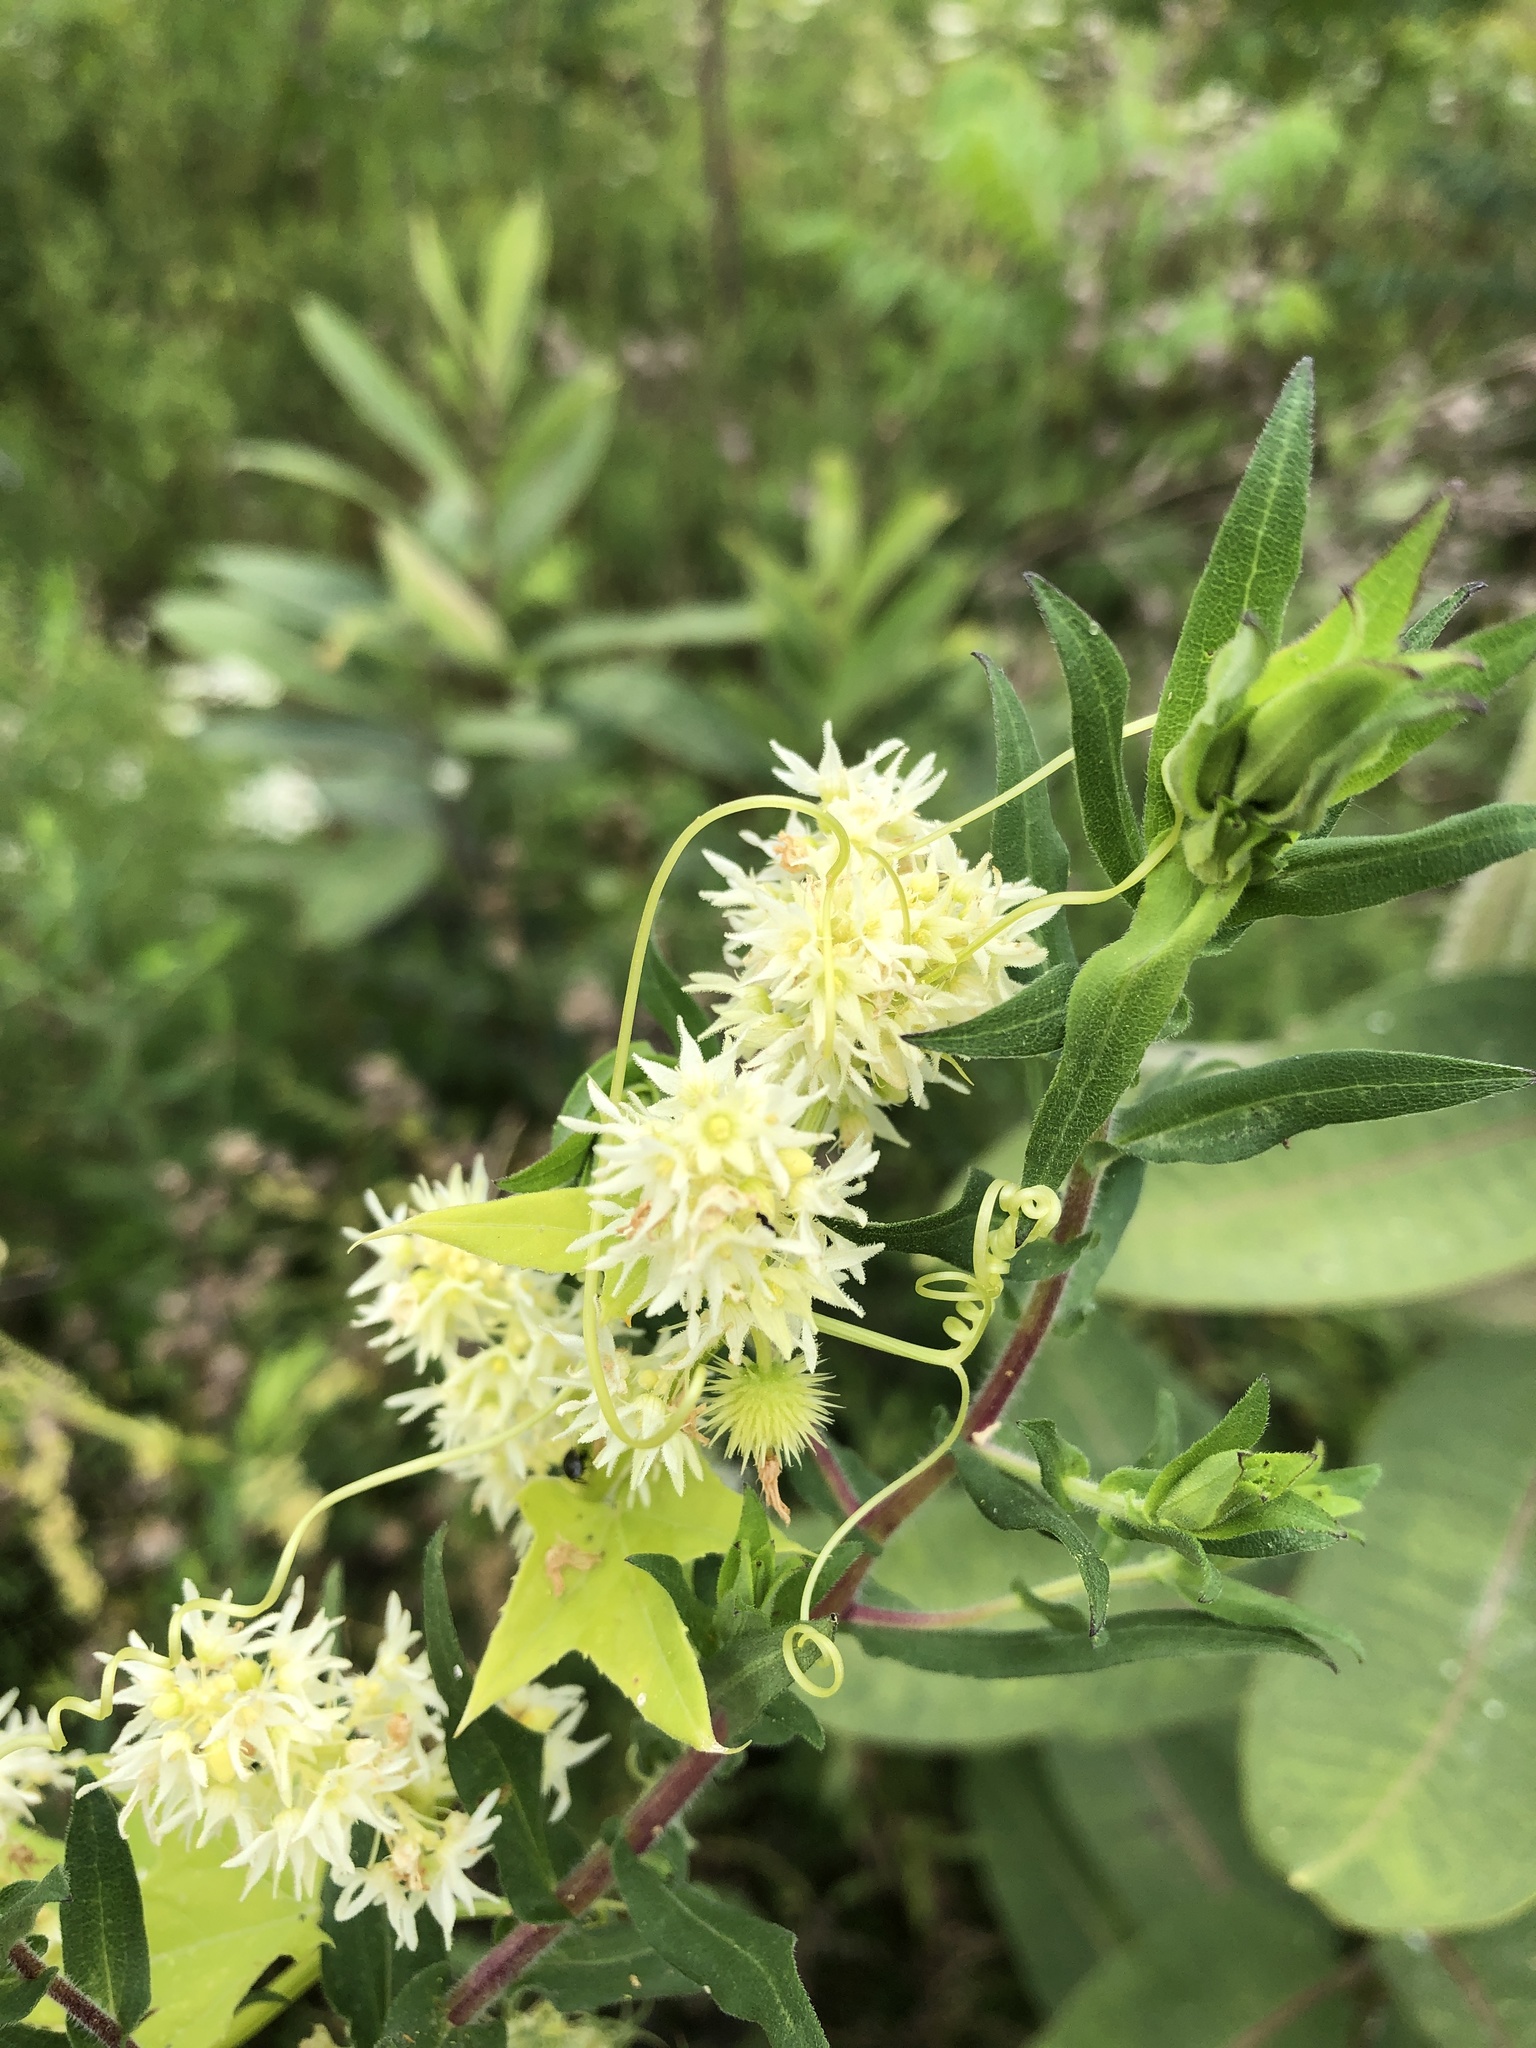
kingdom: Plantae
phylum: Tracheophyta
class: Magnoliopsida
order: Cucurbitales
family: Cucurbitaceae
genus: Echinocystis
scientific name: Echinocystis lobata
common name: Wild cucumber
